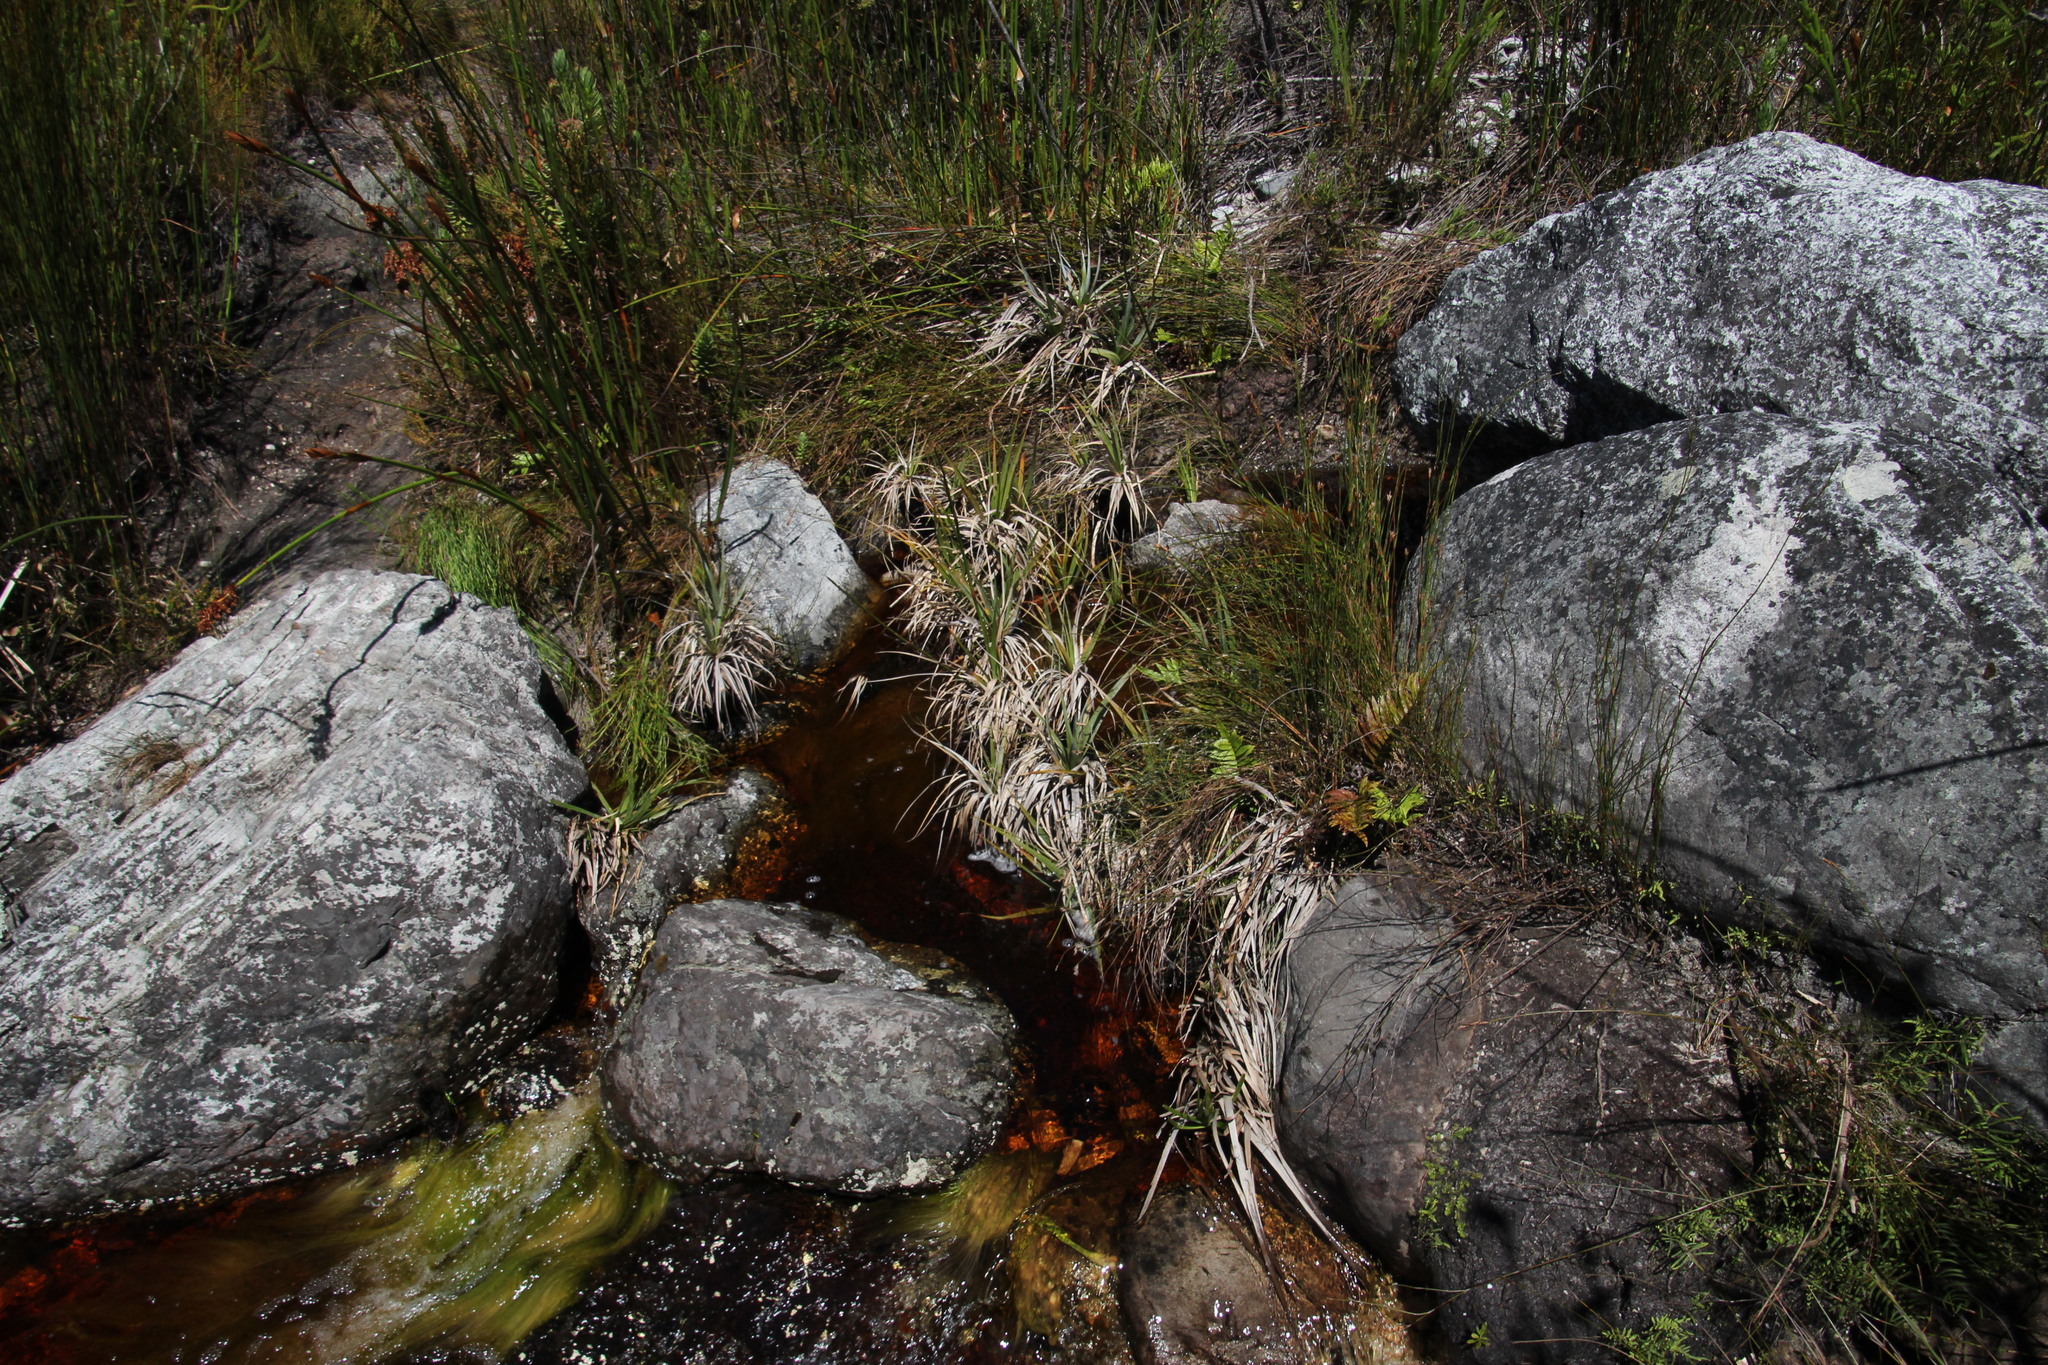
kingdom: Plantae
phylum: Tracheophyta
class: Liliopsida
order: Poales
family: Thurniaceae
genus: Prionium
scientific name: Prionium serratum
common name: Palmiet
